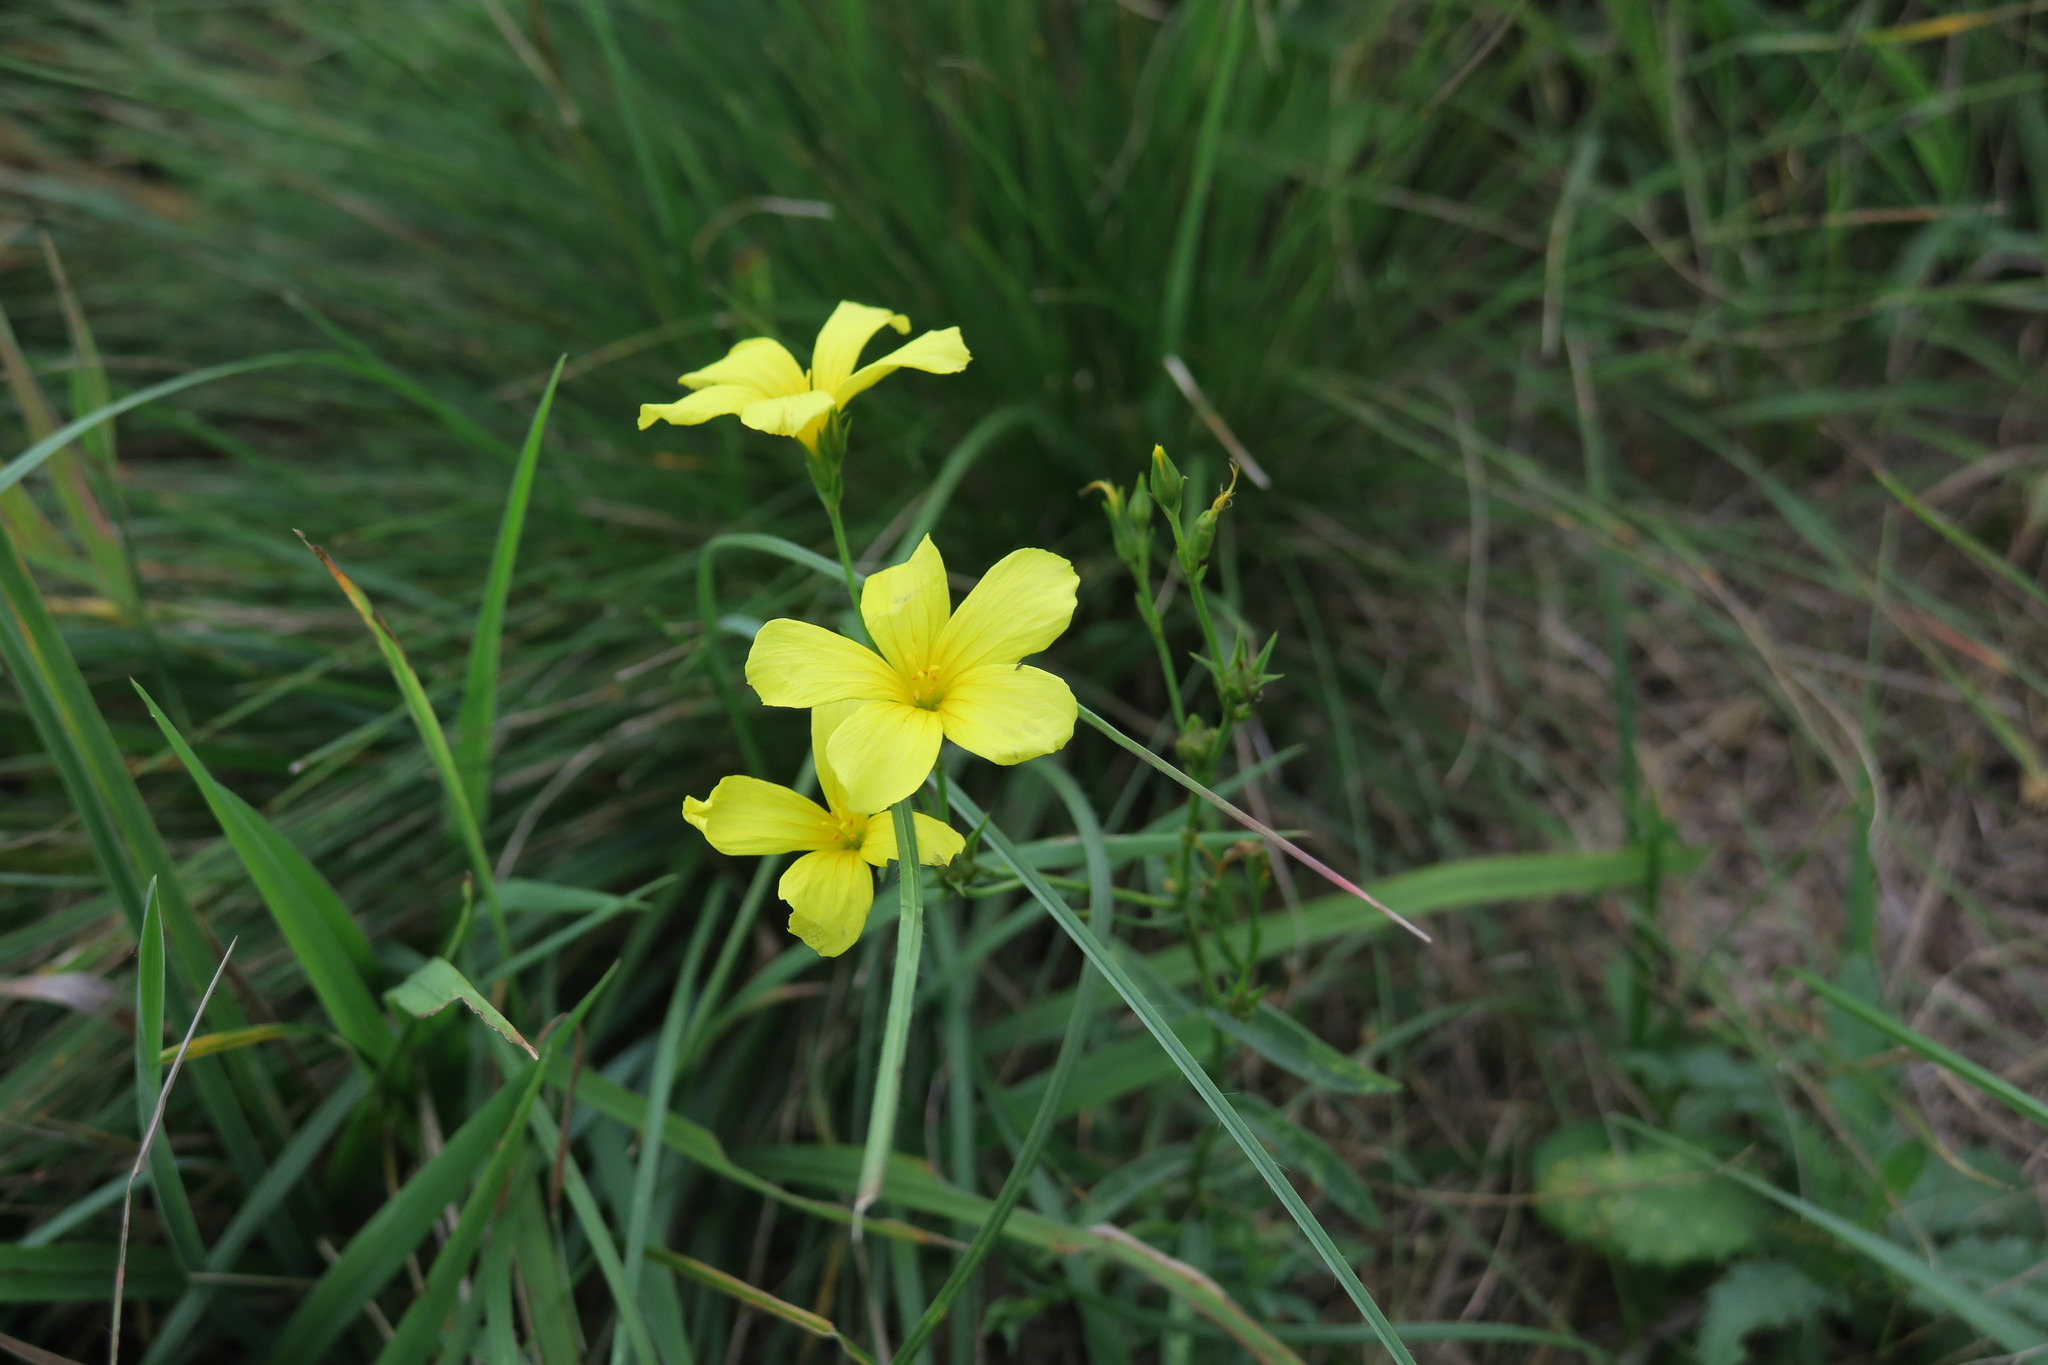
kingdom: Plantae
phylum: Tracheophyta
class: Magnoliopsida
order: Malpighiales
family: Linaceae
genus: Linum
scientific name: Linum flavum
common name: Yellow flax
